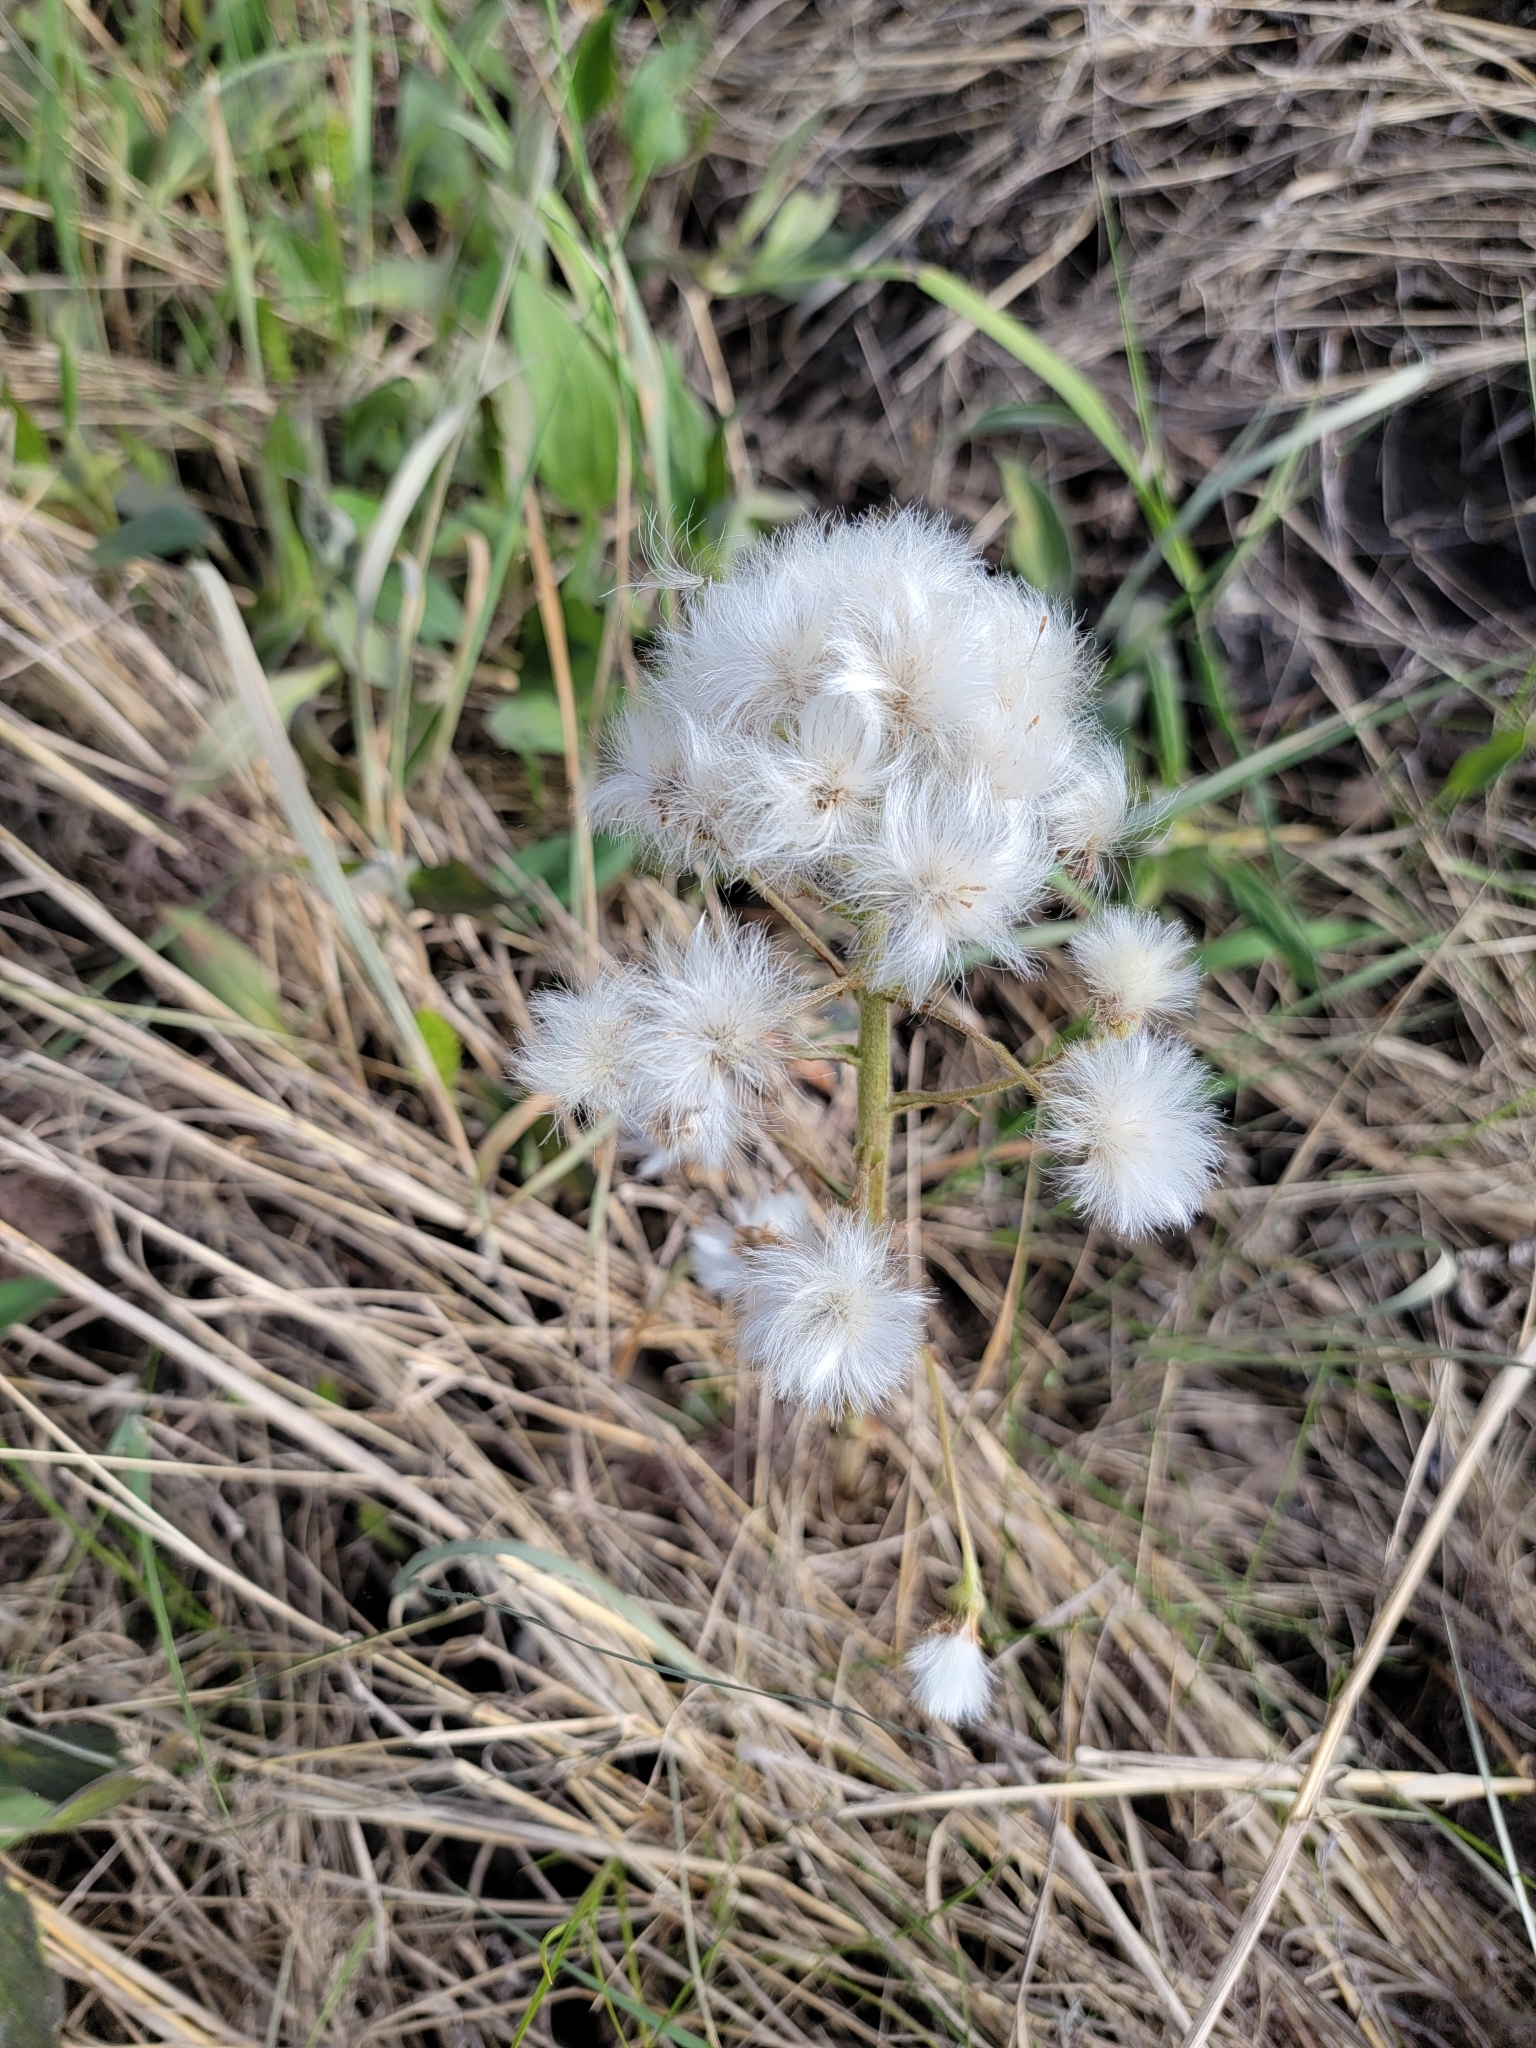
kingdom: Plantae
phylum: Tracheophyta
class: Magnoliopsida
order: Asterales
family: Asteraceae
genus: Petasites
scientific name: Petasites frigidus
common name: Arctic butterbur
